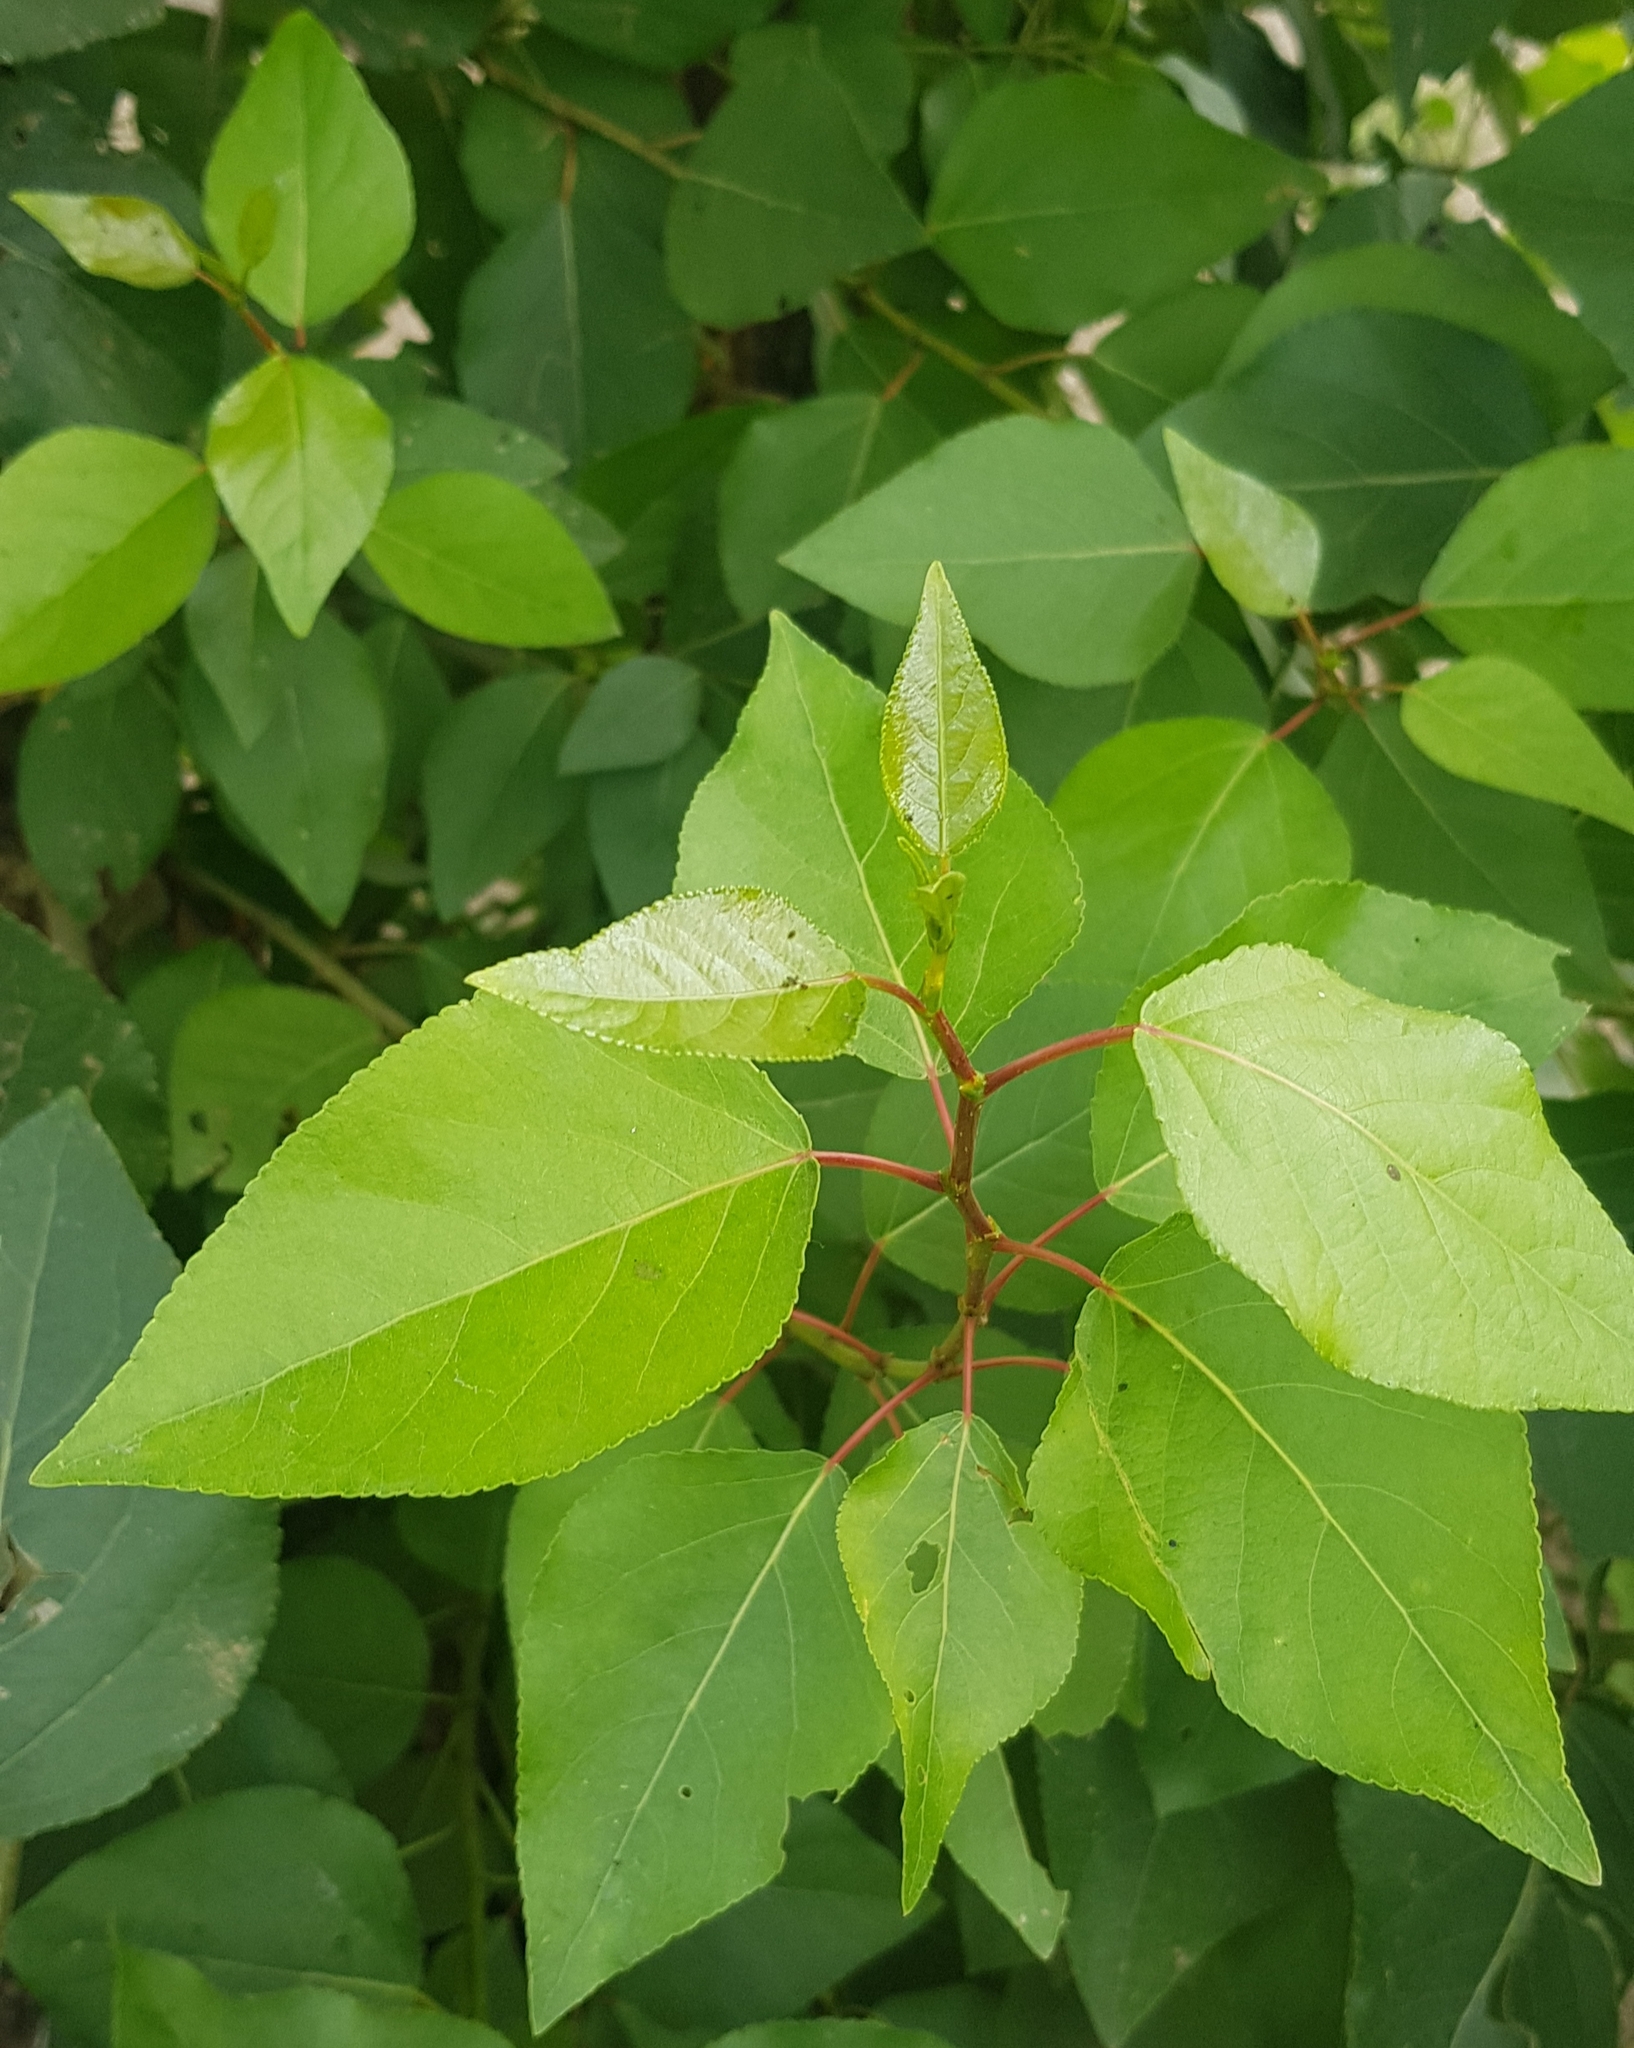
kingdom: Plantae
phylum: Tracheophyta
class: Magnoliopsida
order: Malpighiales
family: Salicaceae
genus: Populus
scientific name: Populus laurifolia
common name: Laurel-leaf poplar
